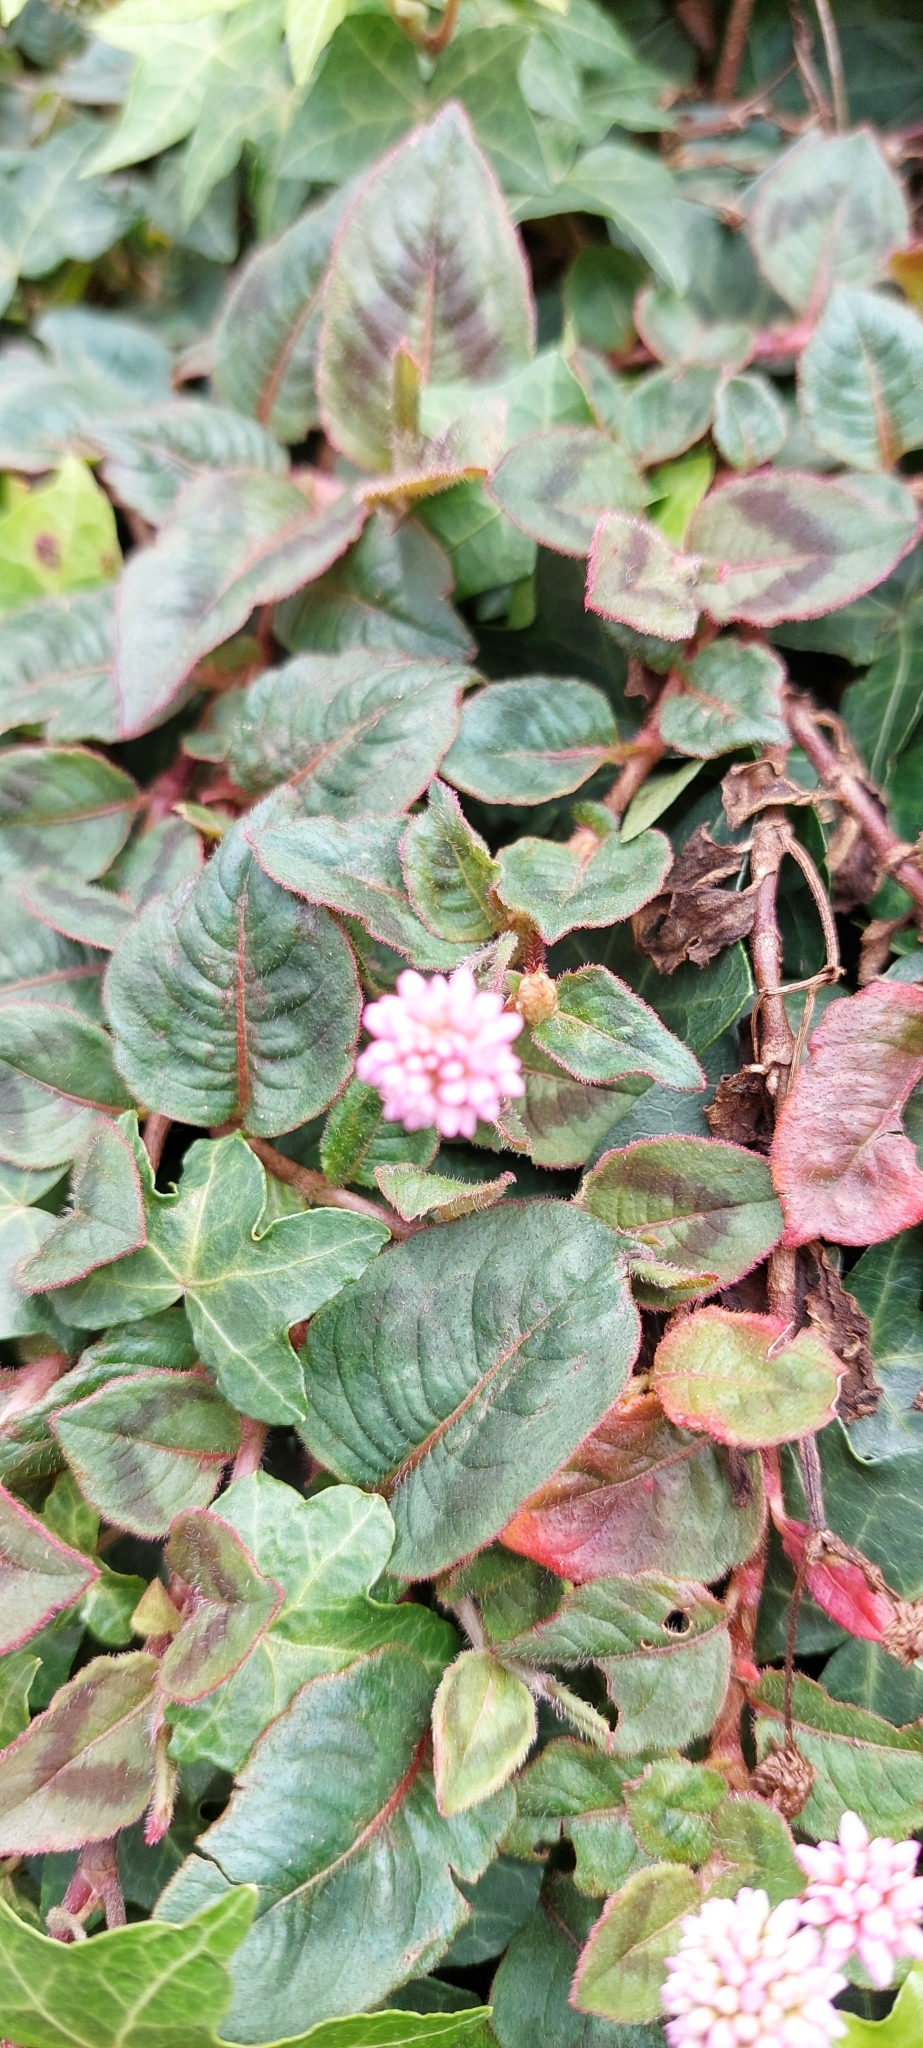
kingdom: Plantae
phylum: Tracheophyta
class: Magnoliopsida
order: Caryophyllales
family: Polygonaceae
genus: Persicaria
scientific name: Persicaria capitata
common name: Pinkhead smartweed
